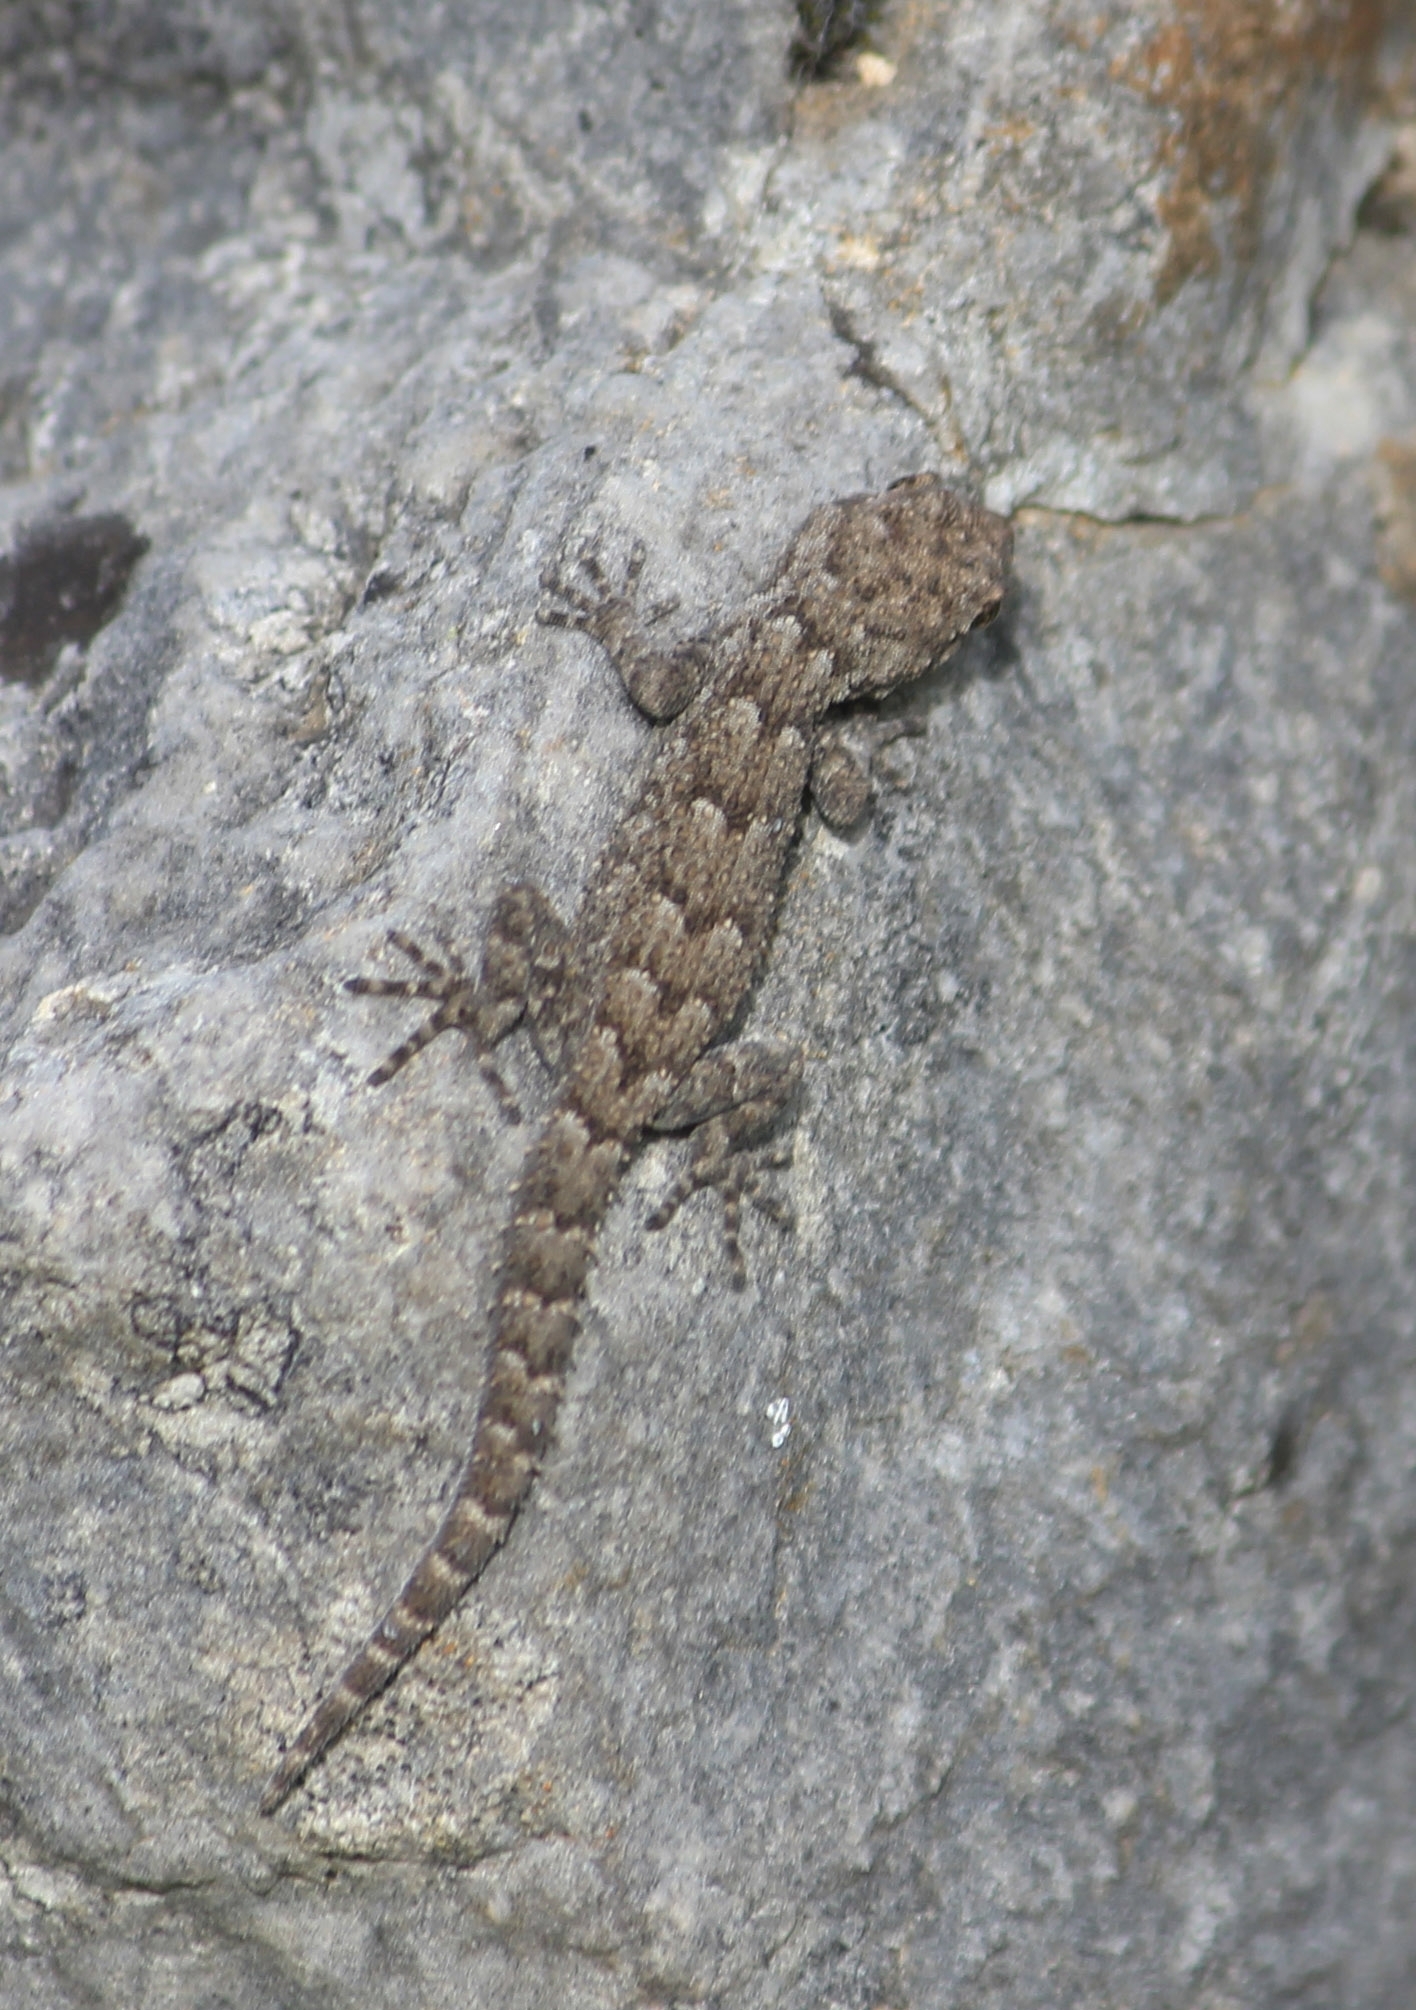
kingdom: Animalia
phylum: Chordata
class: Squamata
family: Gekkonidae
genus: Mediodactylus
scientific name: Mediodactylus kotschyi
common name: Kotschy's gecko
